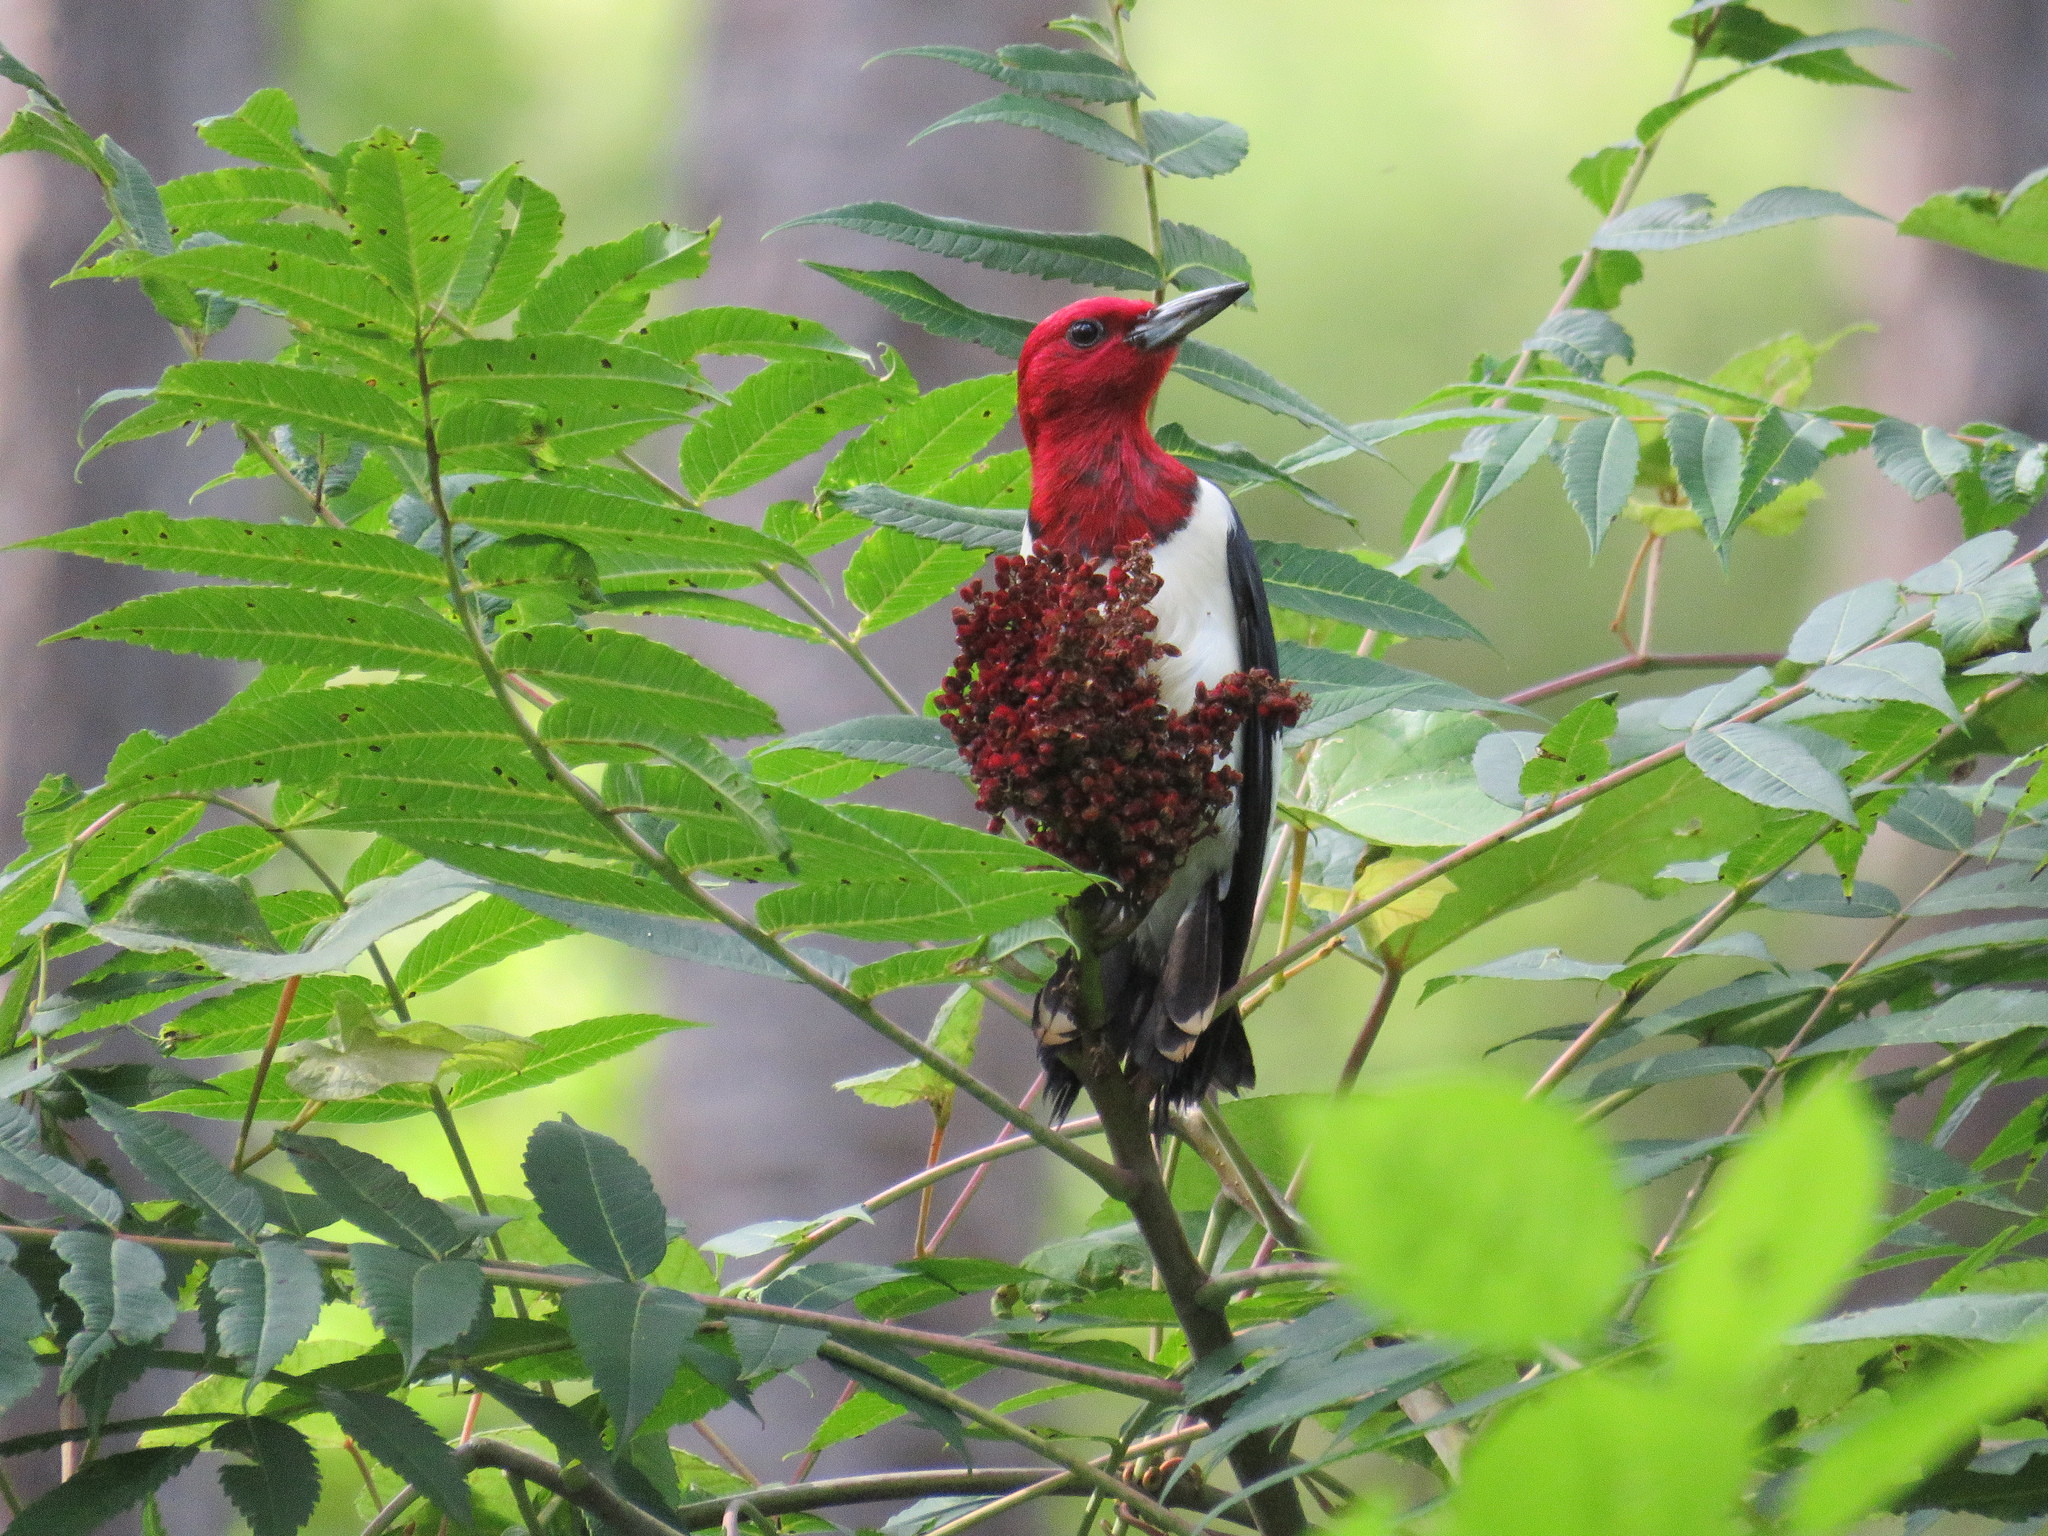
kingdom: Animalia
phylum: Chordata
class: Aves
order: Piciformes
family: Picidae
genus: Melanerpes
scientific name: Melanerpes erythrocephalus
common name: Red-headed woodpecker
